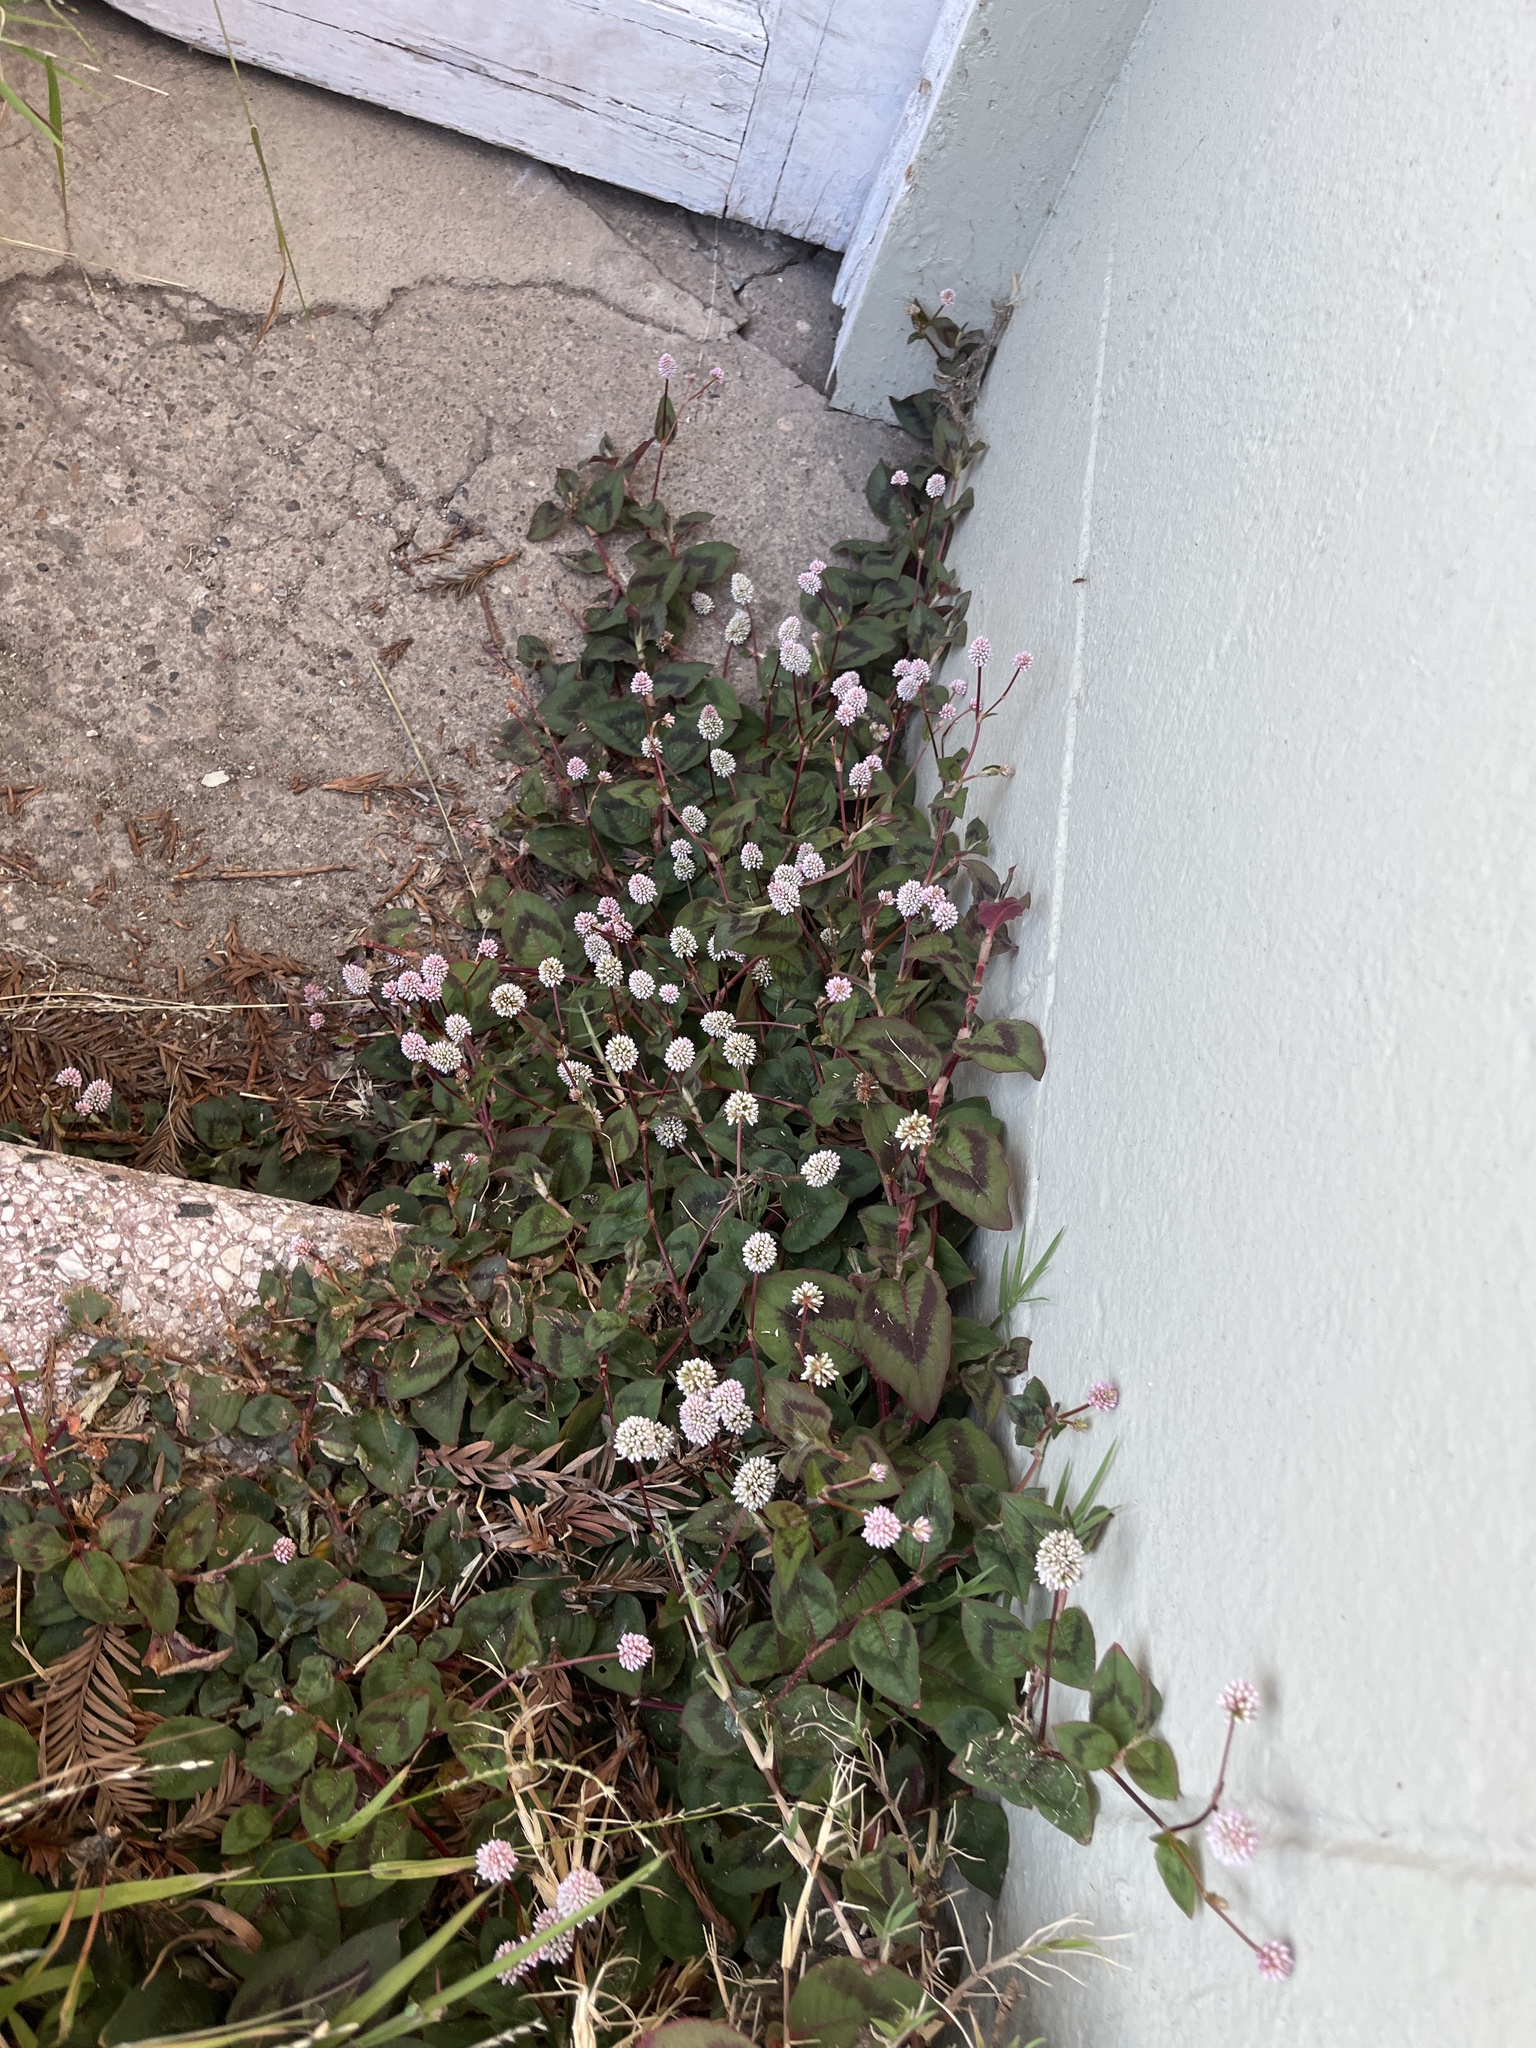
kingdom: Plantae
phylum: Tracheophyta
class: Magnoliopsida
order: Caryophyllales
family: Polygonaceae
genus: Persicaria
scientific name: Persicaria capitata
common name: Pinkhead smartweed
